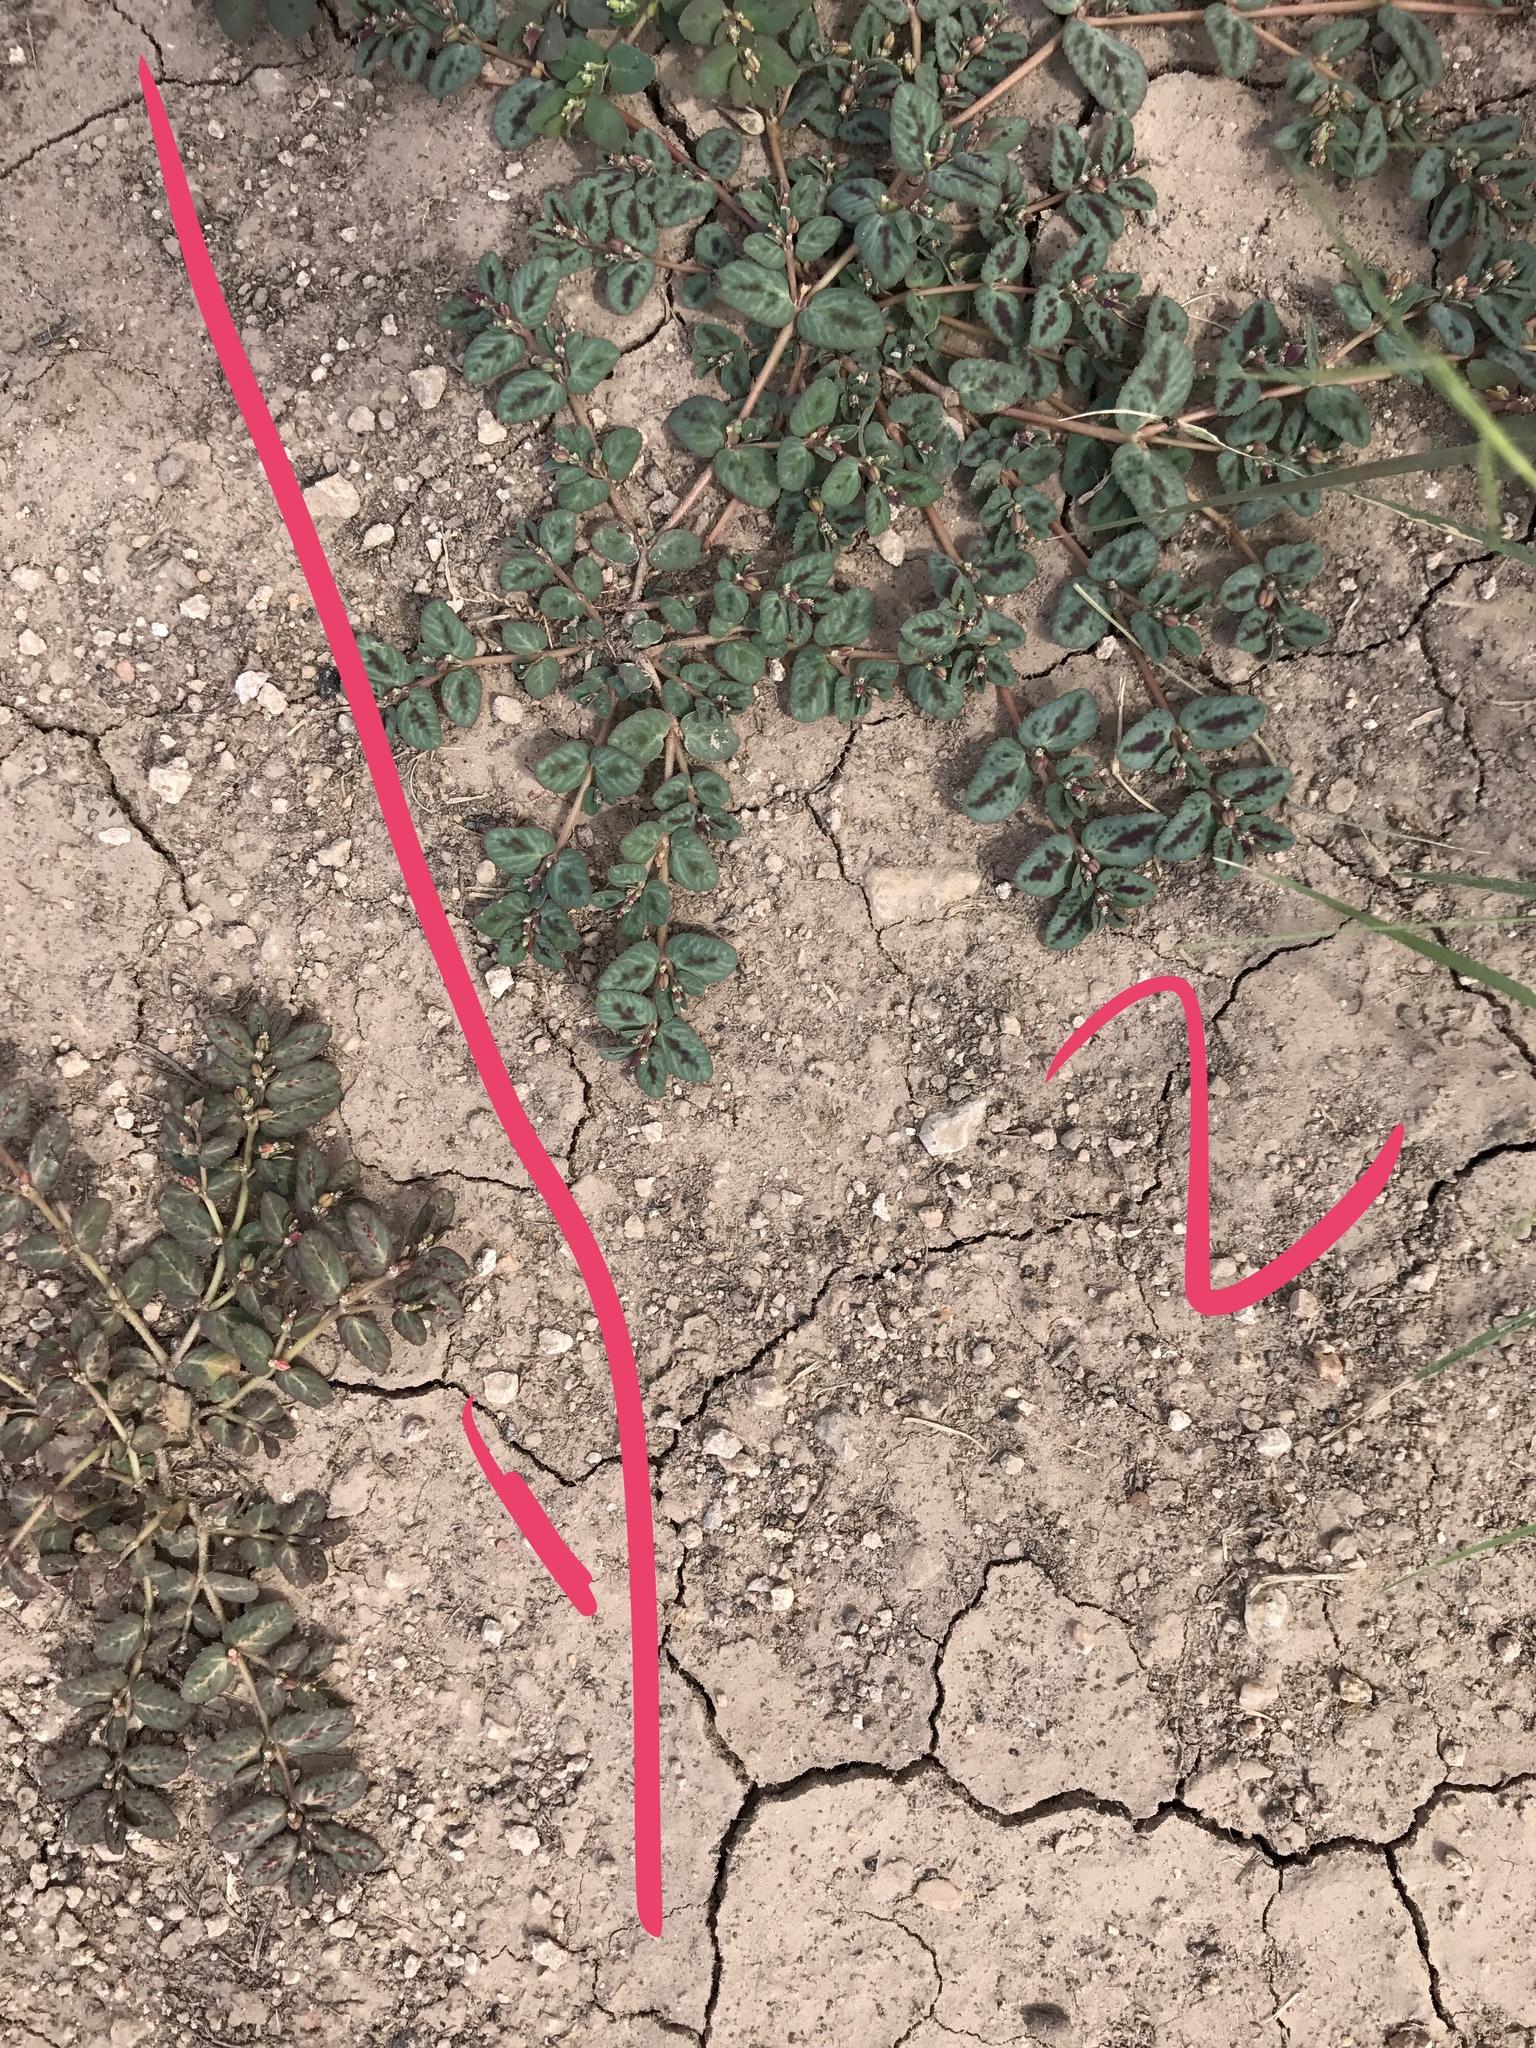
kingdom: Plantae
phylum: Tracheophyta
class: Magnoliopsida
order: Malpighiales
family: Euphorbiaceae
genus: Euphorbia
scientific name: Euphorbia abramsiana
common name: Abram's spurge
